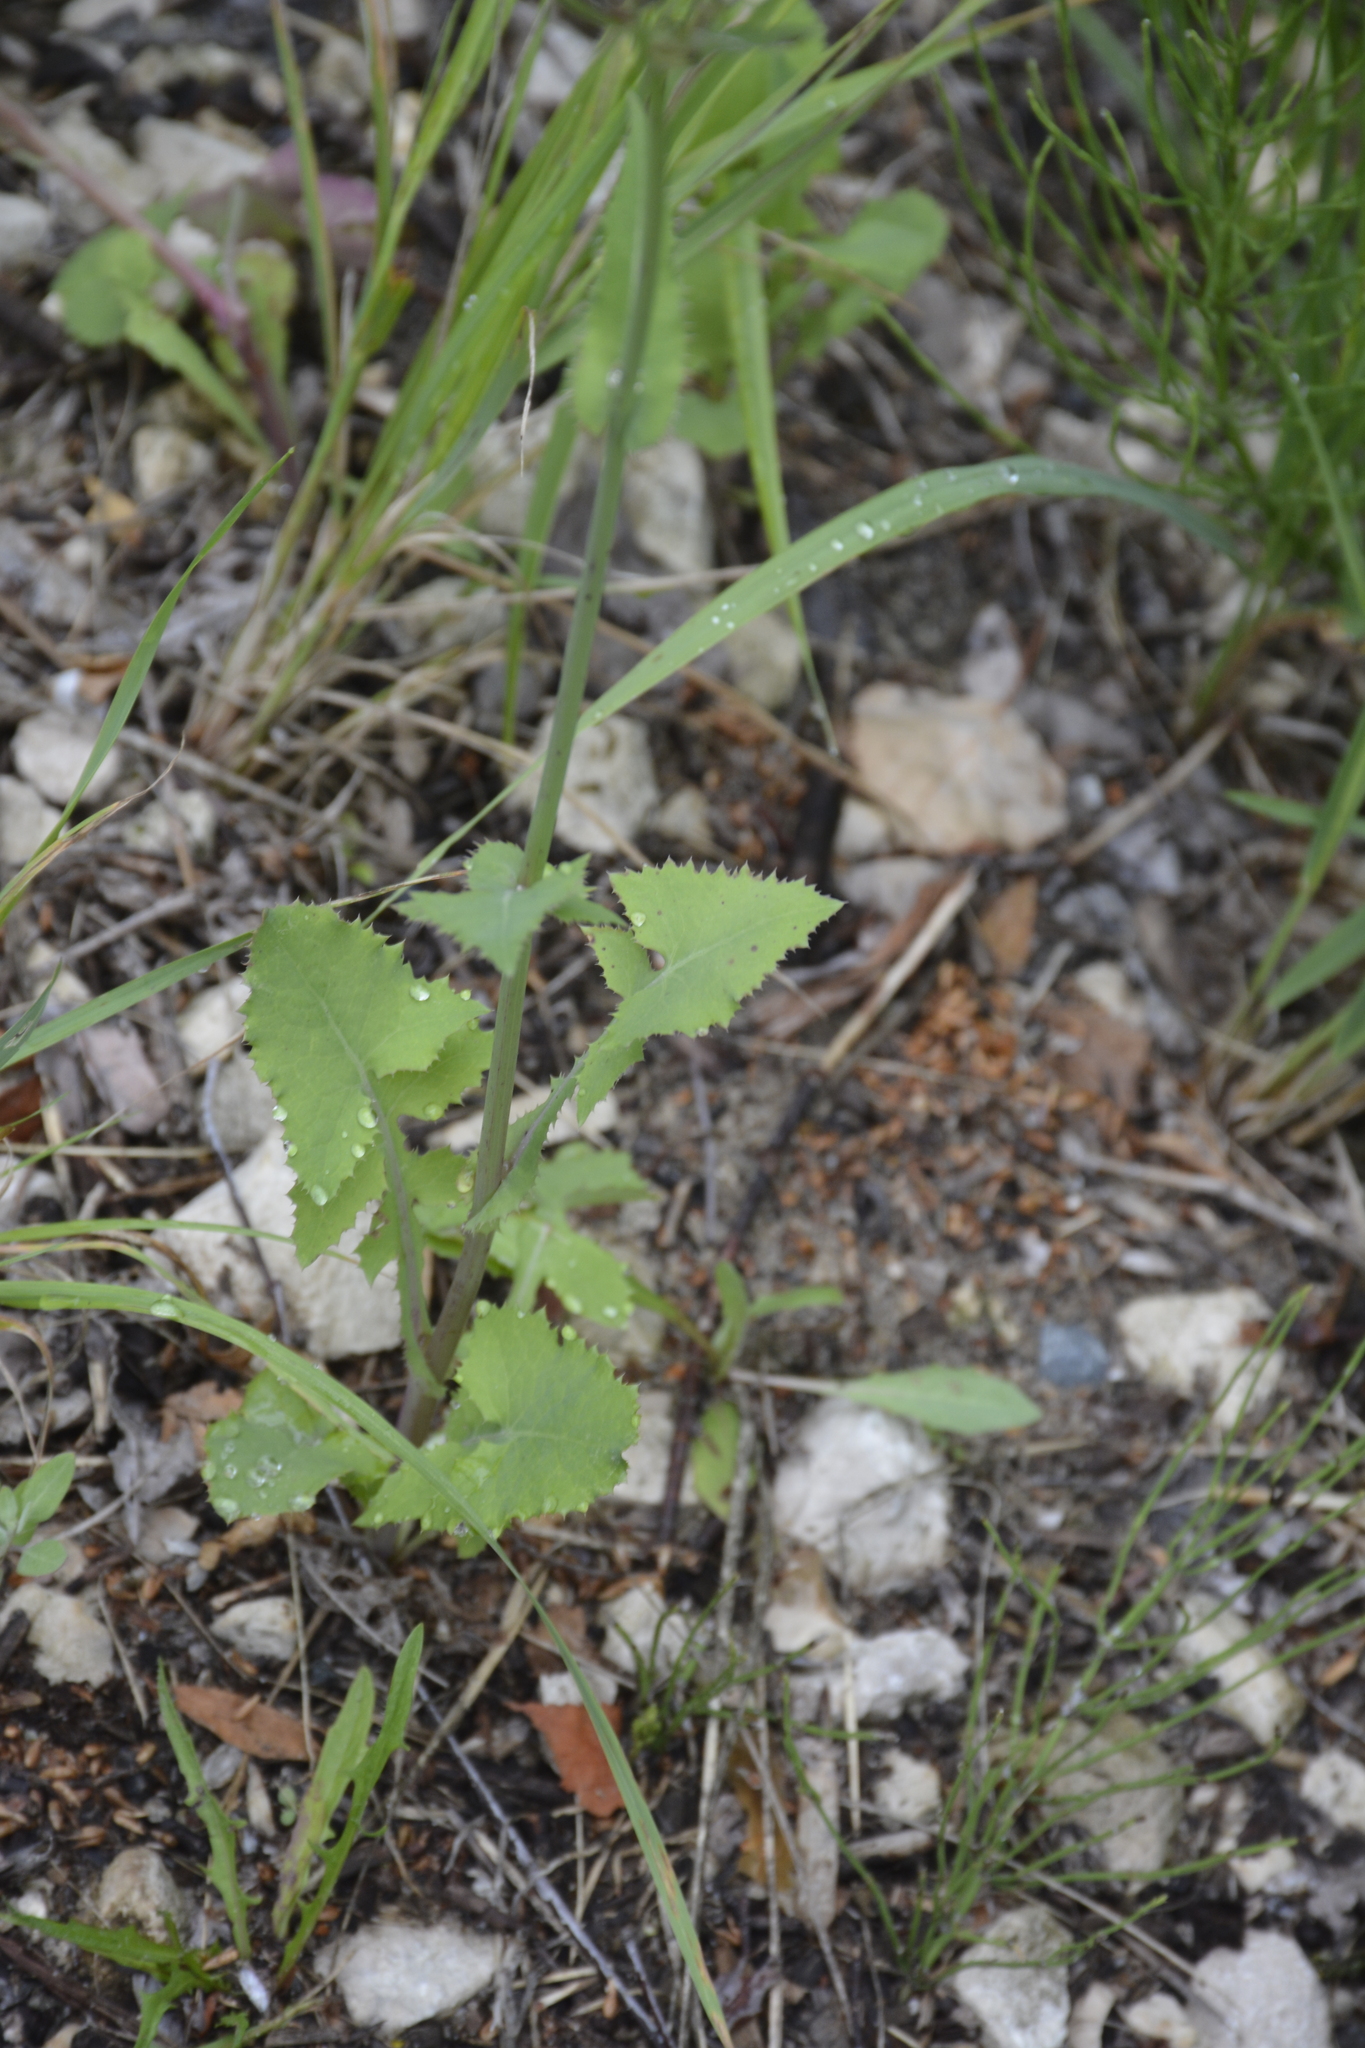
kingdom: Plantae
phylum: Tracheophyta
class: Magnoliopsida
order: Asterales
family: Asteraceae
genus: Sonchus
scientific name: Sonchus oleraceus
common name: Common sowthistle
